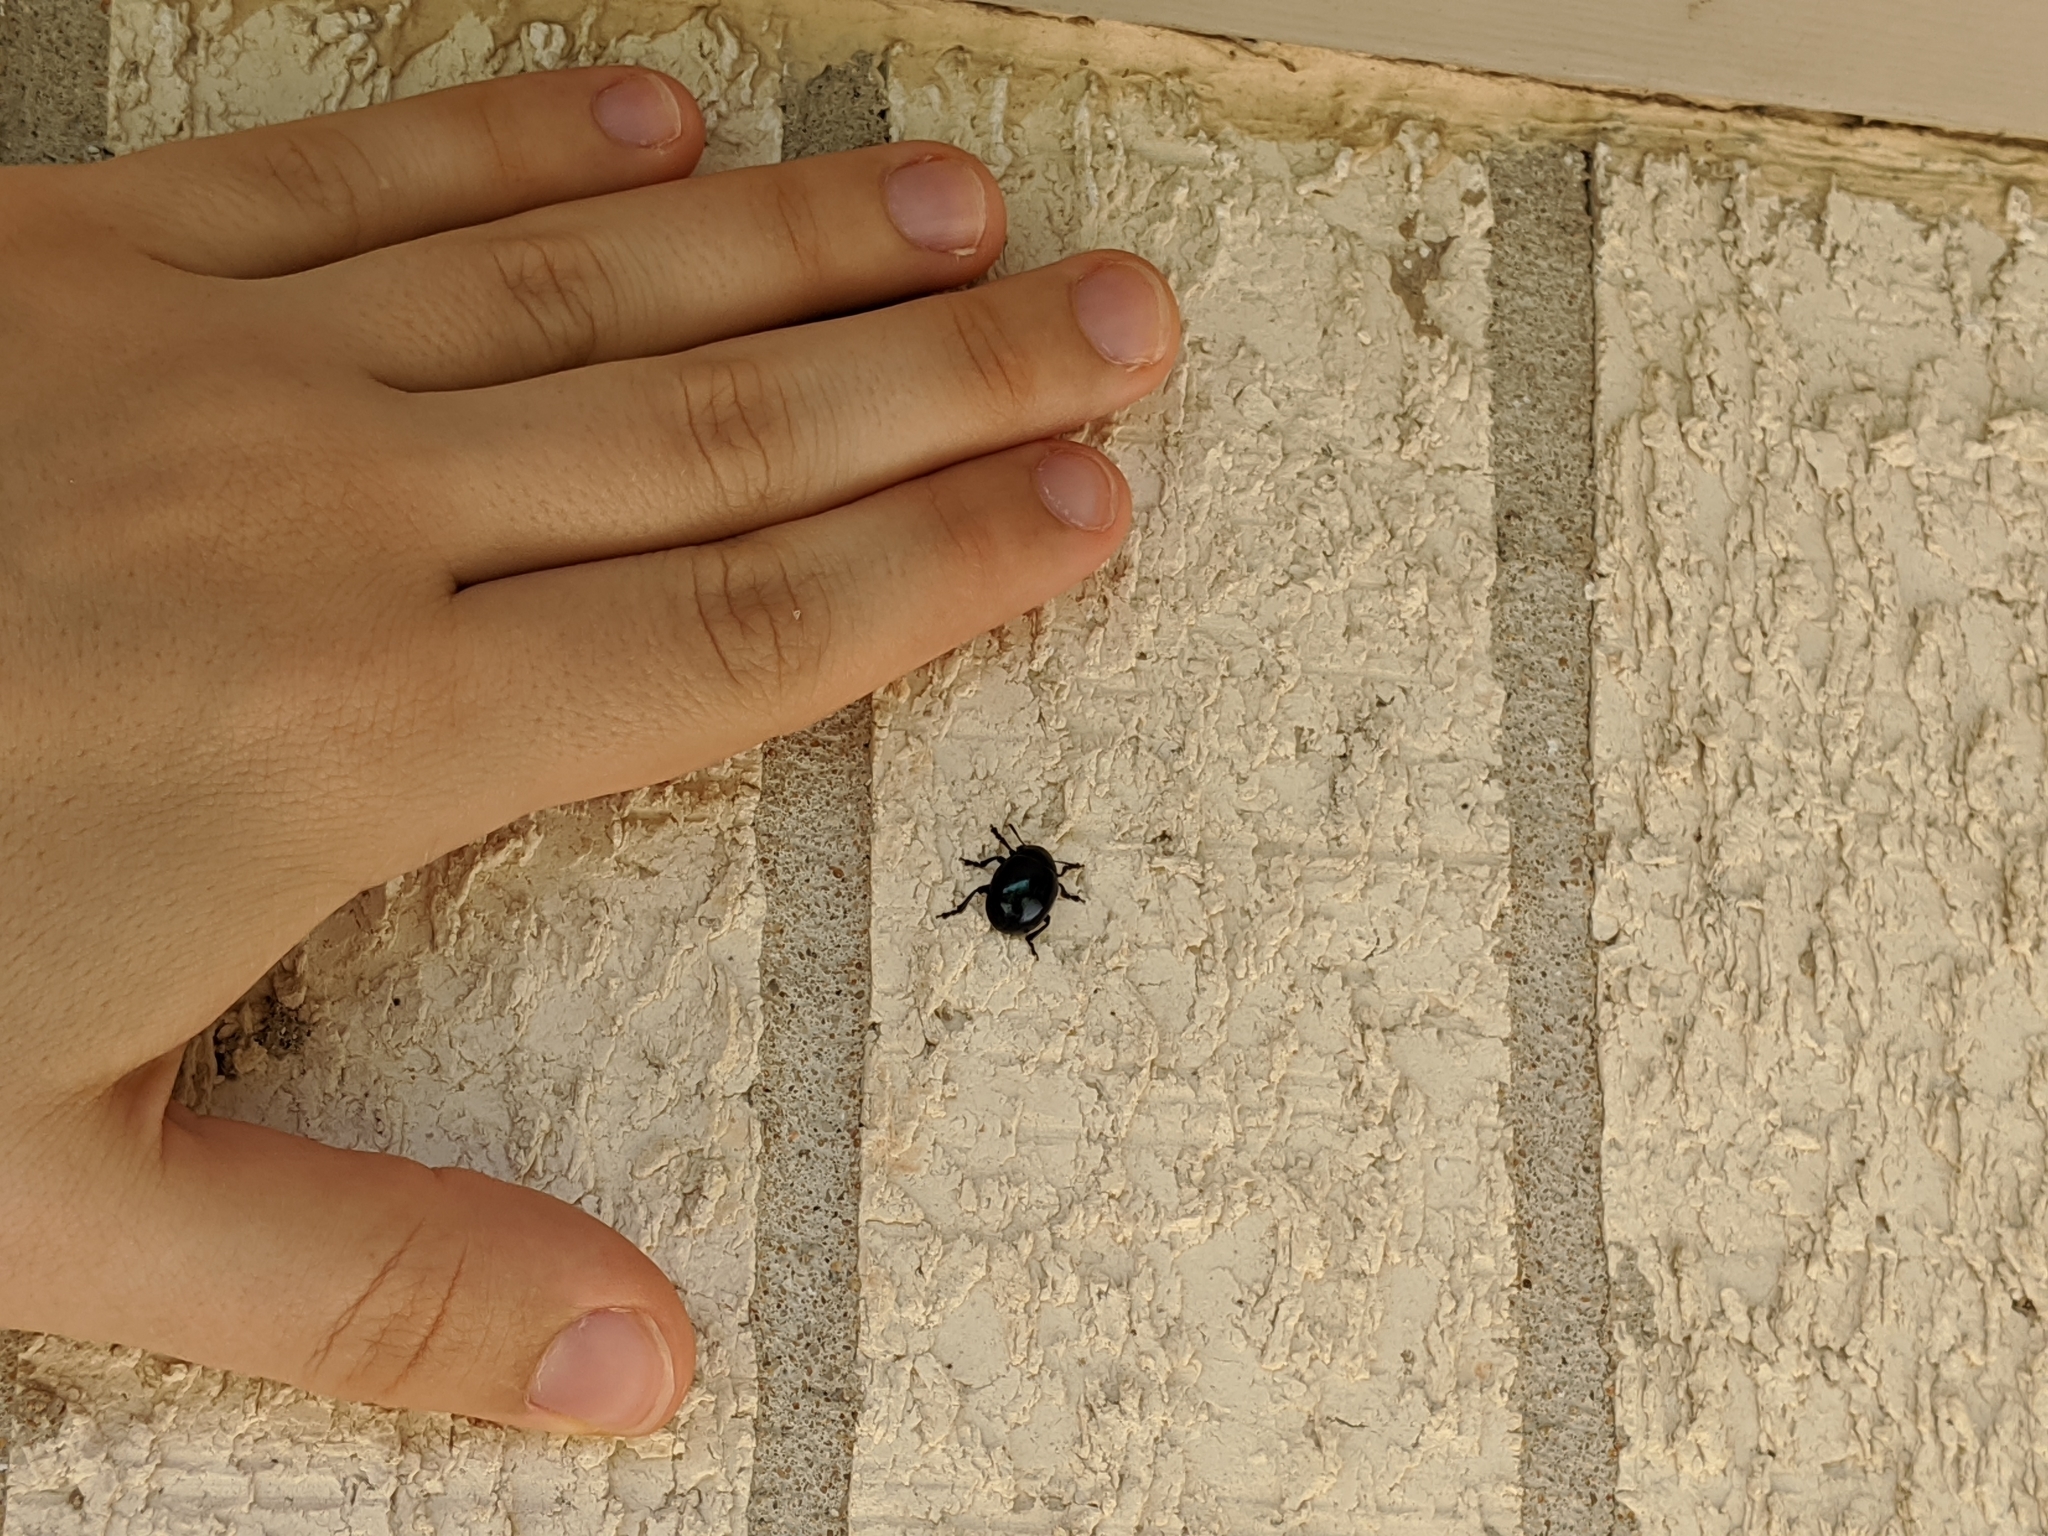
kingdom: Animalia
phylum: Arthropoda
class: Insecta
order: Coleoptera
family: Chrysomelidae
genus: Leptinotarsa
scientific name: Leptinotarsa haldemani
